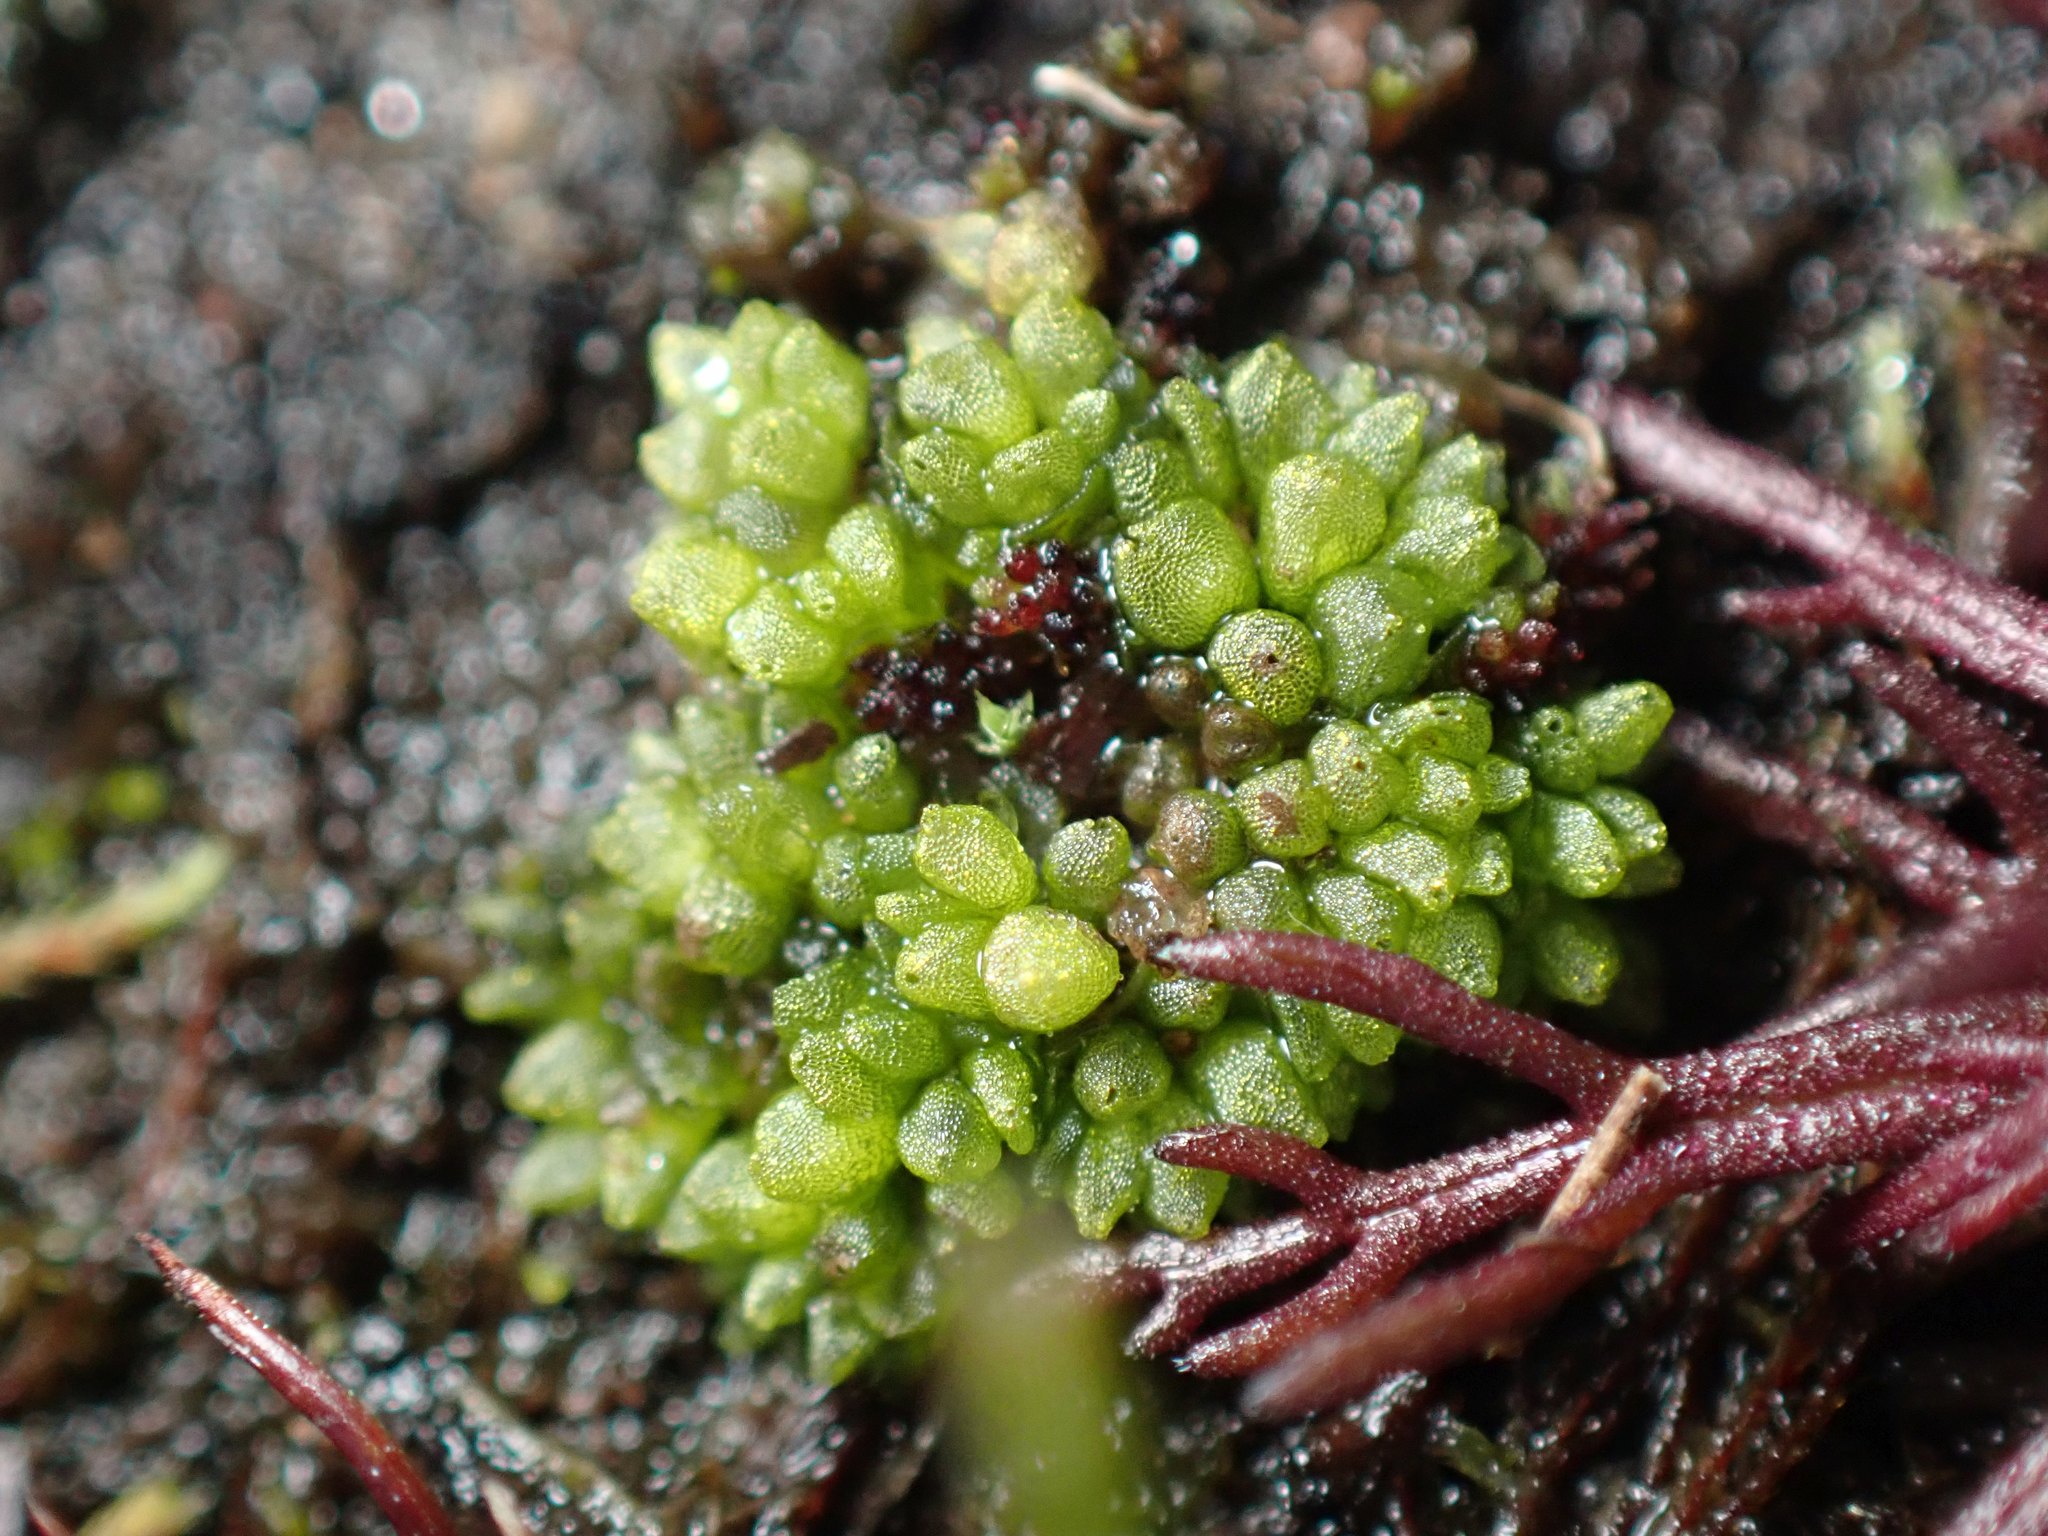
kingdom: Plantae
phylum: Marchantiophyta
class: Marchantiopsida
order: Sphaerocarpales
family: Sphaerocarpaceae
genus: Sphaerocarpos
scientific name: Sphaerocarpos texanus
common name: Texas balloonwort
